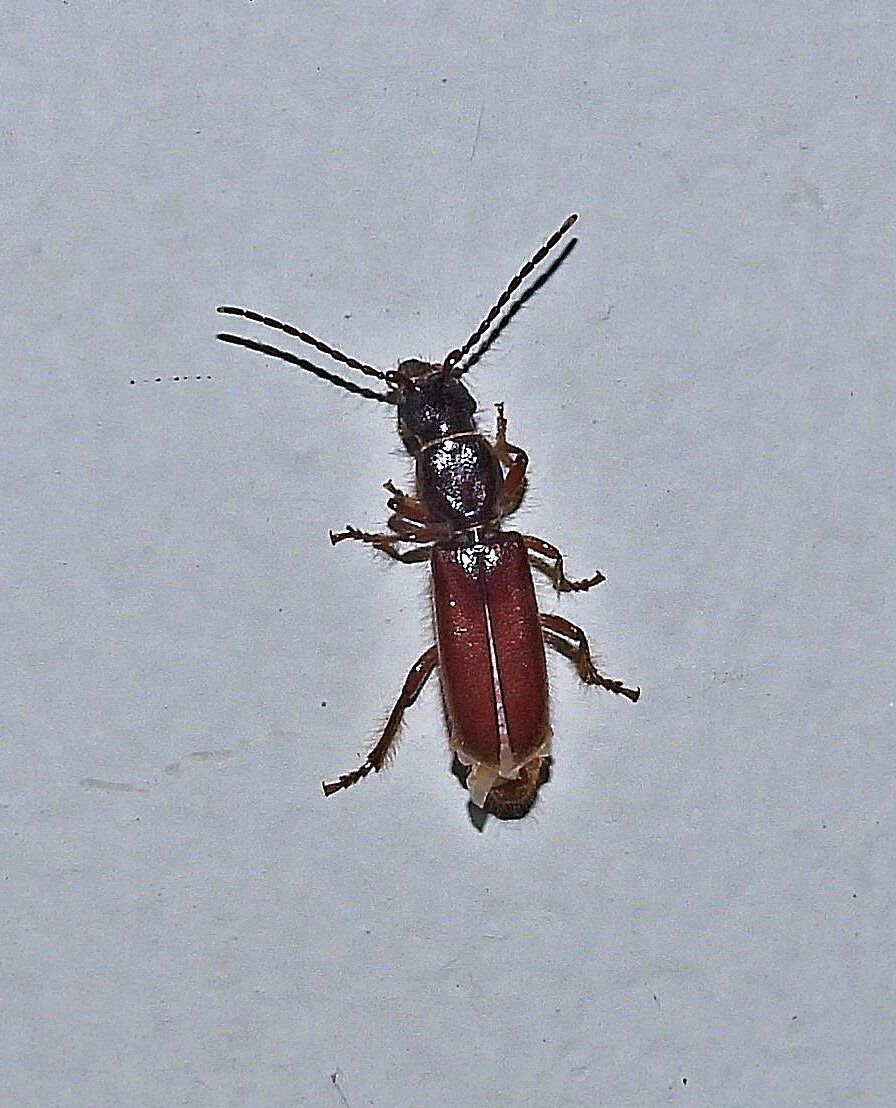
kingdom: Animalia
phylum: Arthropoda
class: Insecta
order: Coleoptera
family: Cerambycidae
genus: Erlandia
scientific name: Erlandia inopinata
